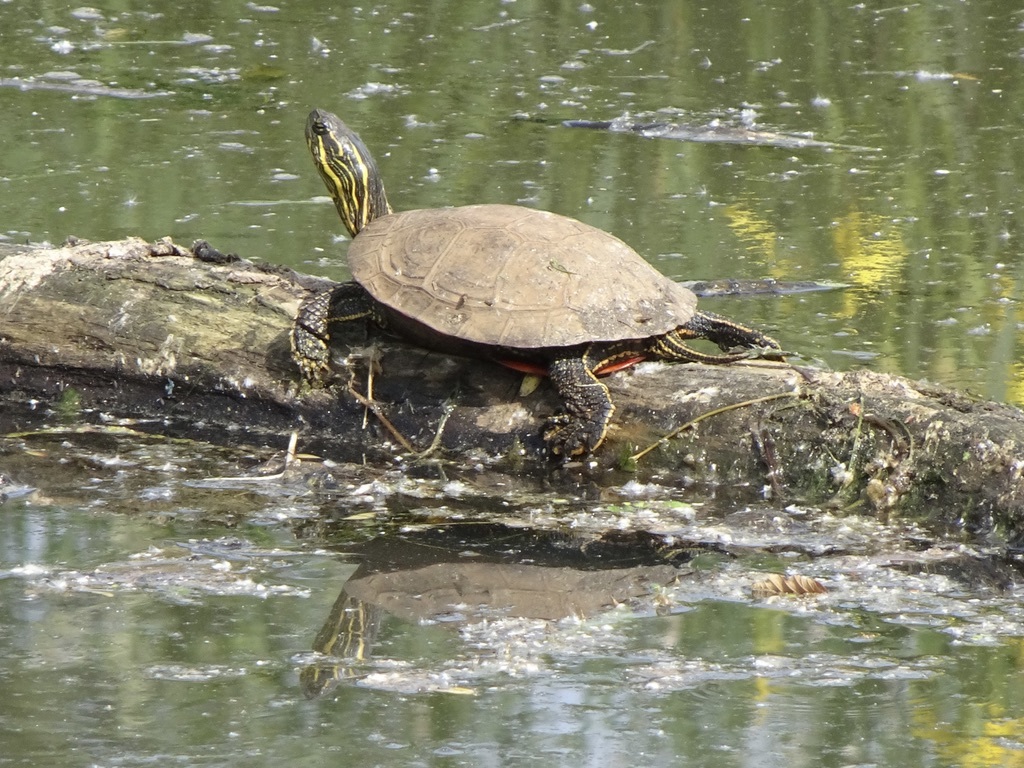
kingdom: Animalia
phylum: Chordata
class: Testudines
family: Emydidae
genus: Chrysemys
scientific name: Chrysemys picta
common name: Painted turtle
